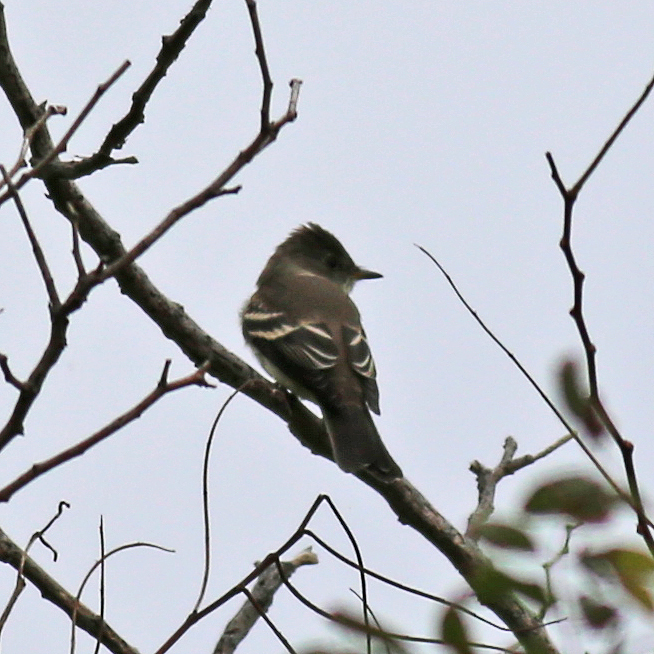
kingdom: Animalia
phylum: Chordata
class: Aves
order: Passeriformes
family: Tyrannidae
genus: Contopus
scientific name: Contopus virens
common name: Eastern wood-pewee
